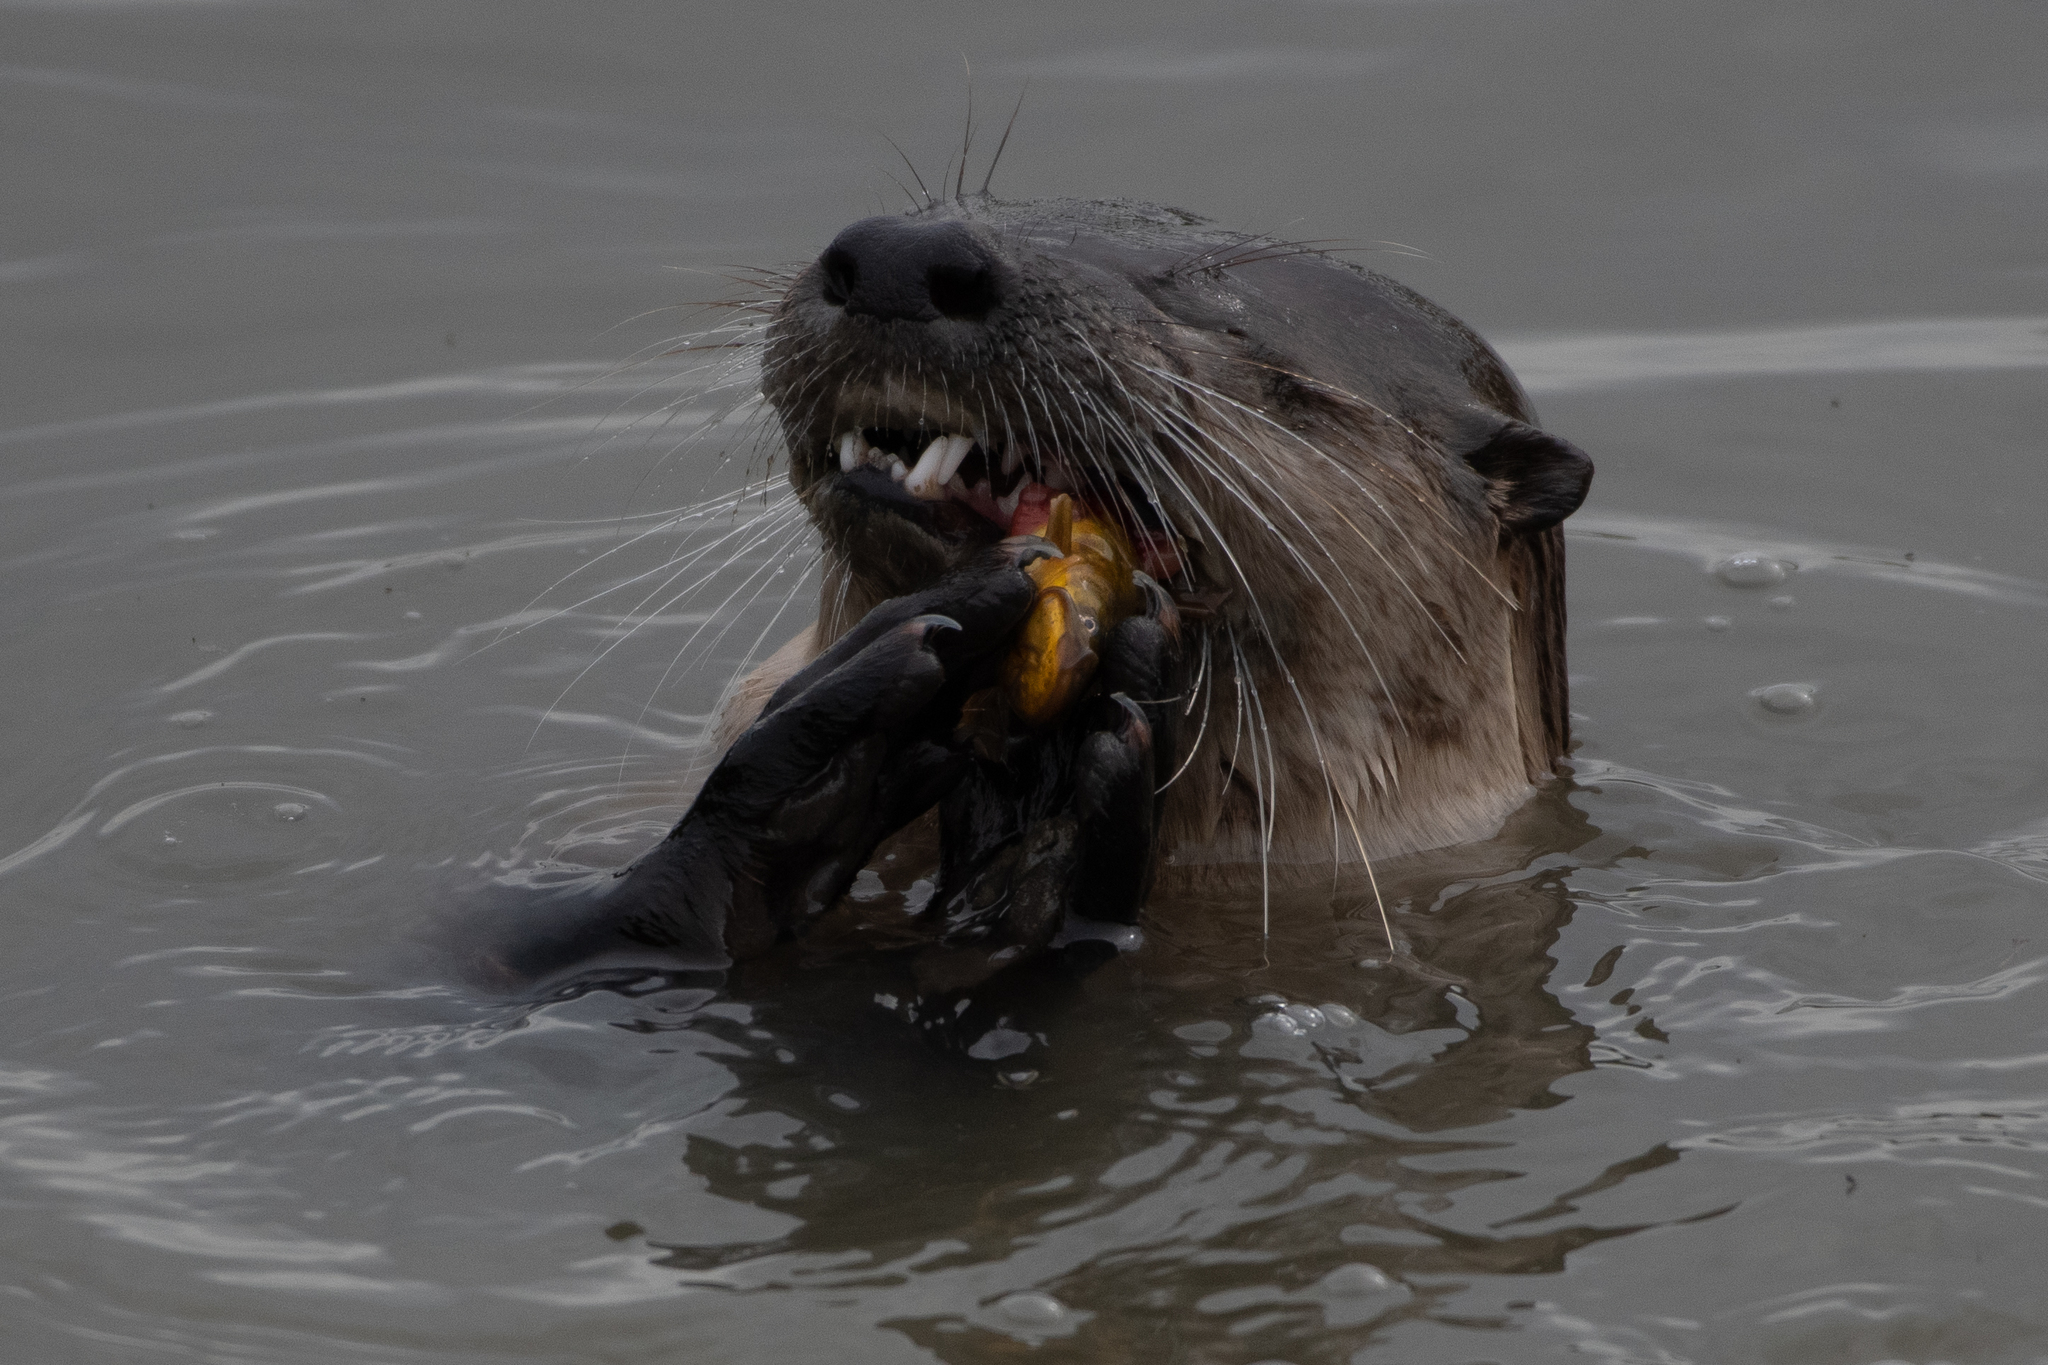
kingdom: Animalia
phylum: Chordata
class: Mammalia
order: Carnivora
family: Mustelidae
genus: Lontra
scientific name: Lontra canadensis
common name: North american river otter
